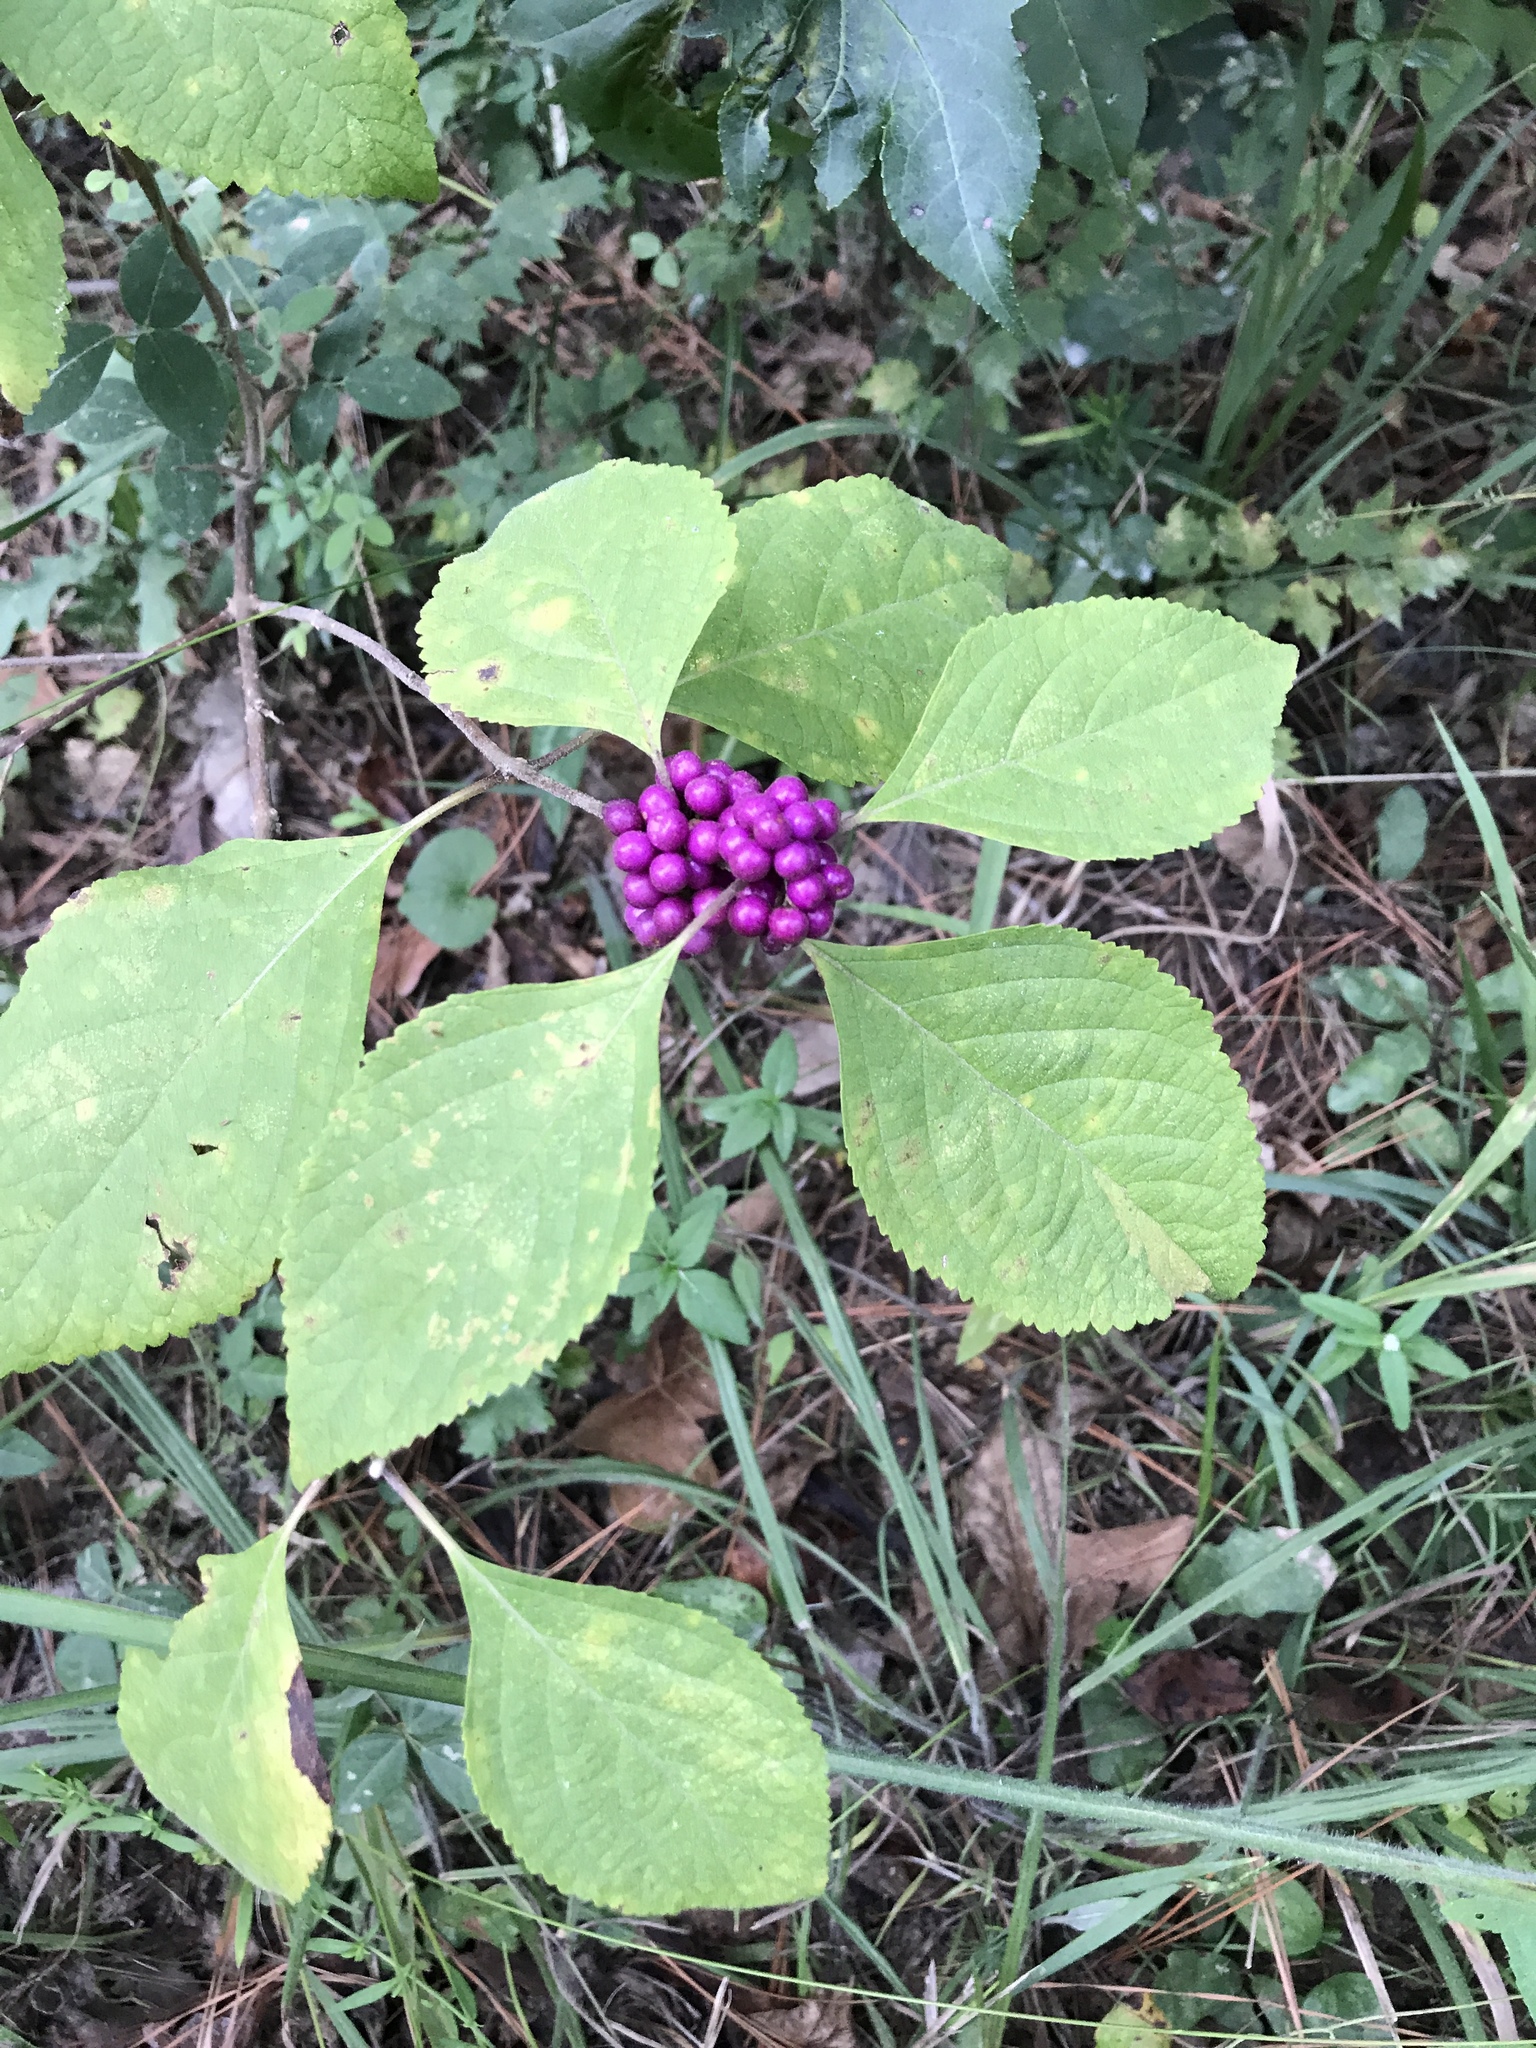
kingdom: Plantae
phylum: Tracheophyta
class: Magnoliopsida
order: Lamiales
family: Lamiaceae
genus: Callicarpa
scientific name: Callicarpa americana
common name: American beautyberry
